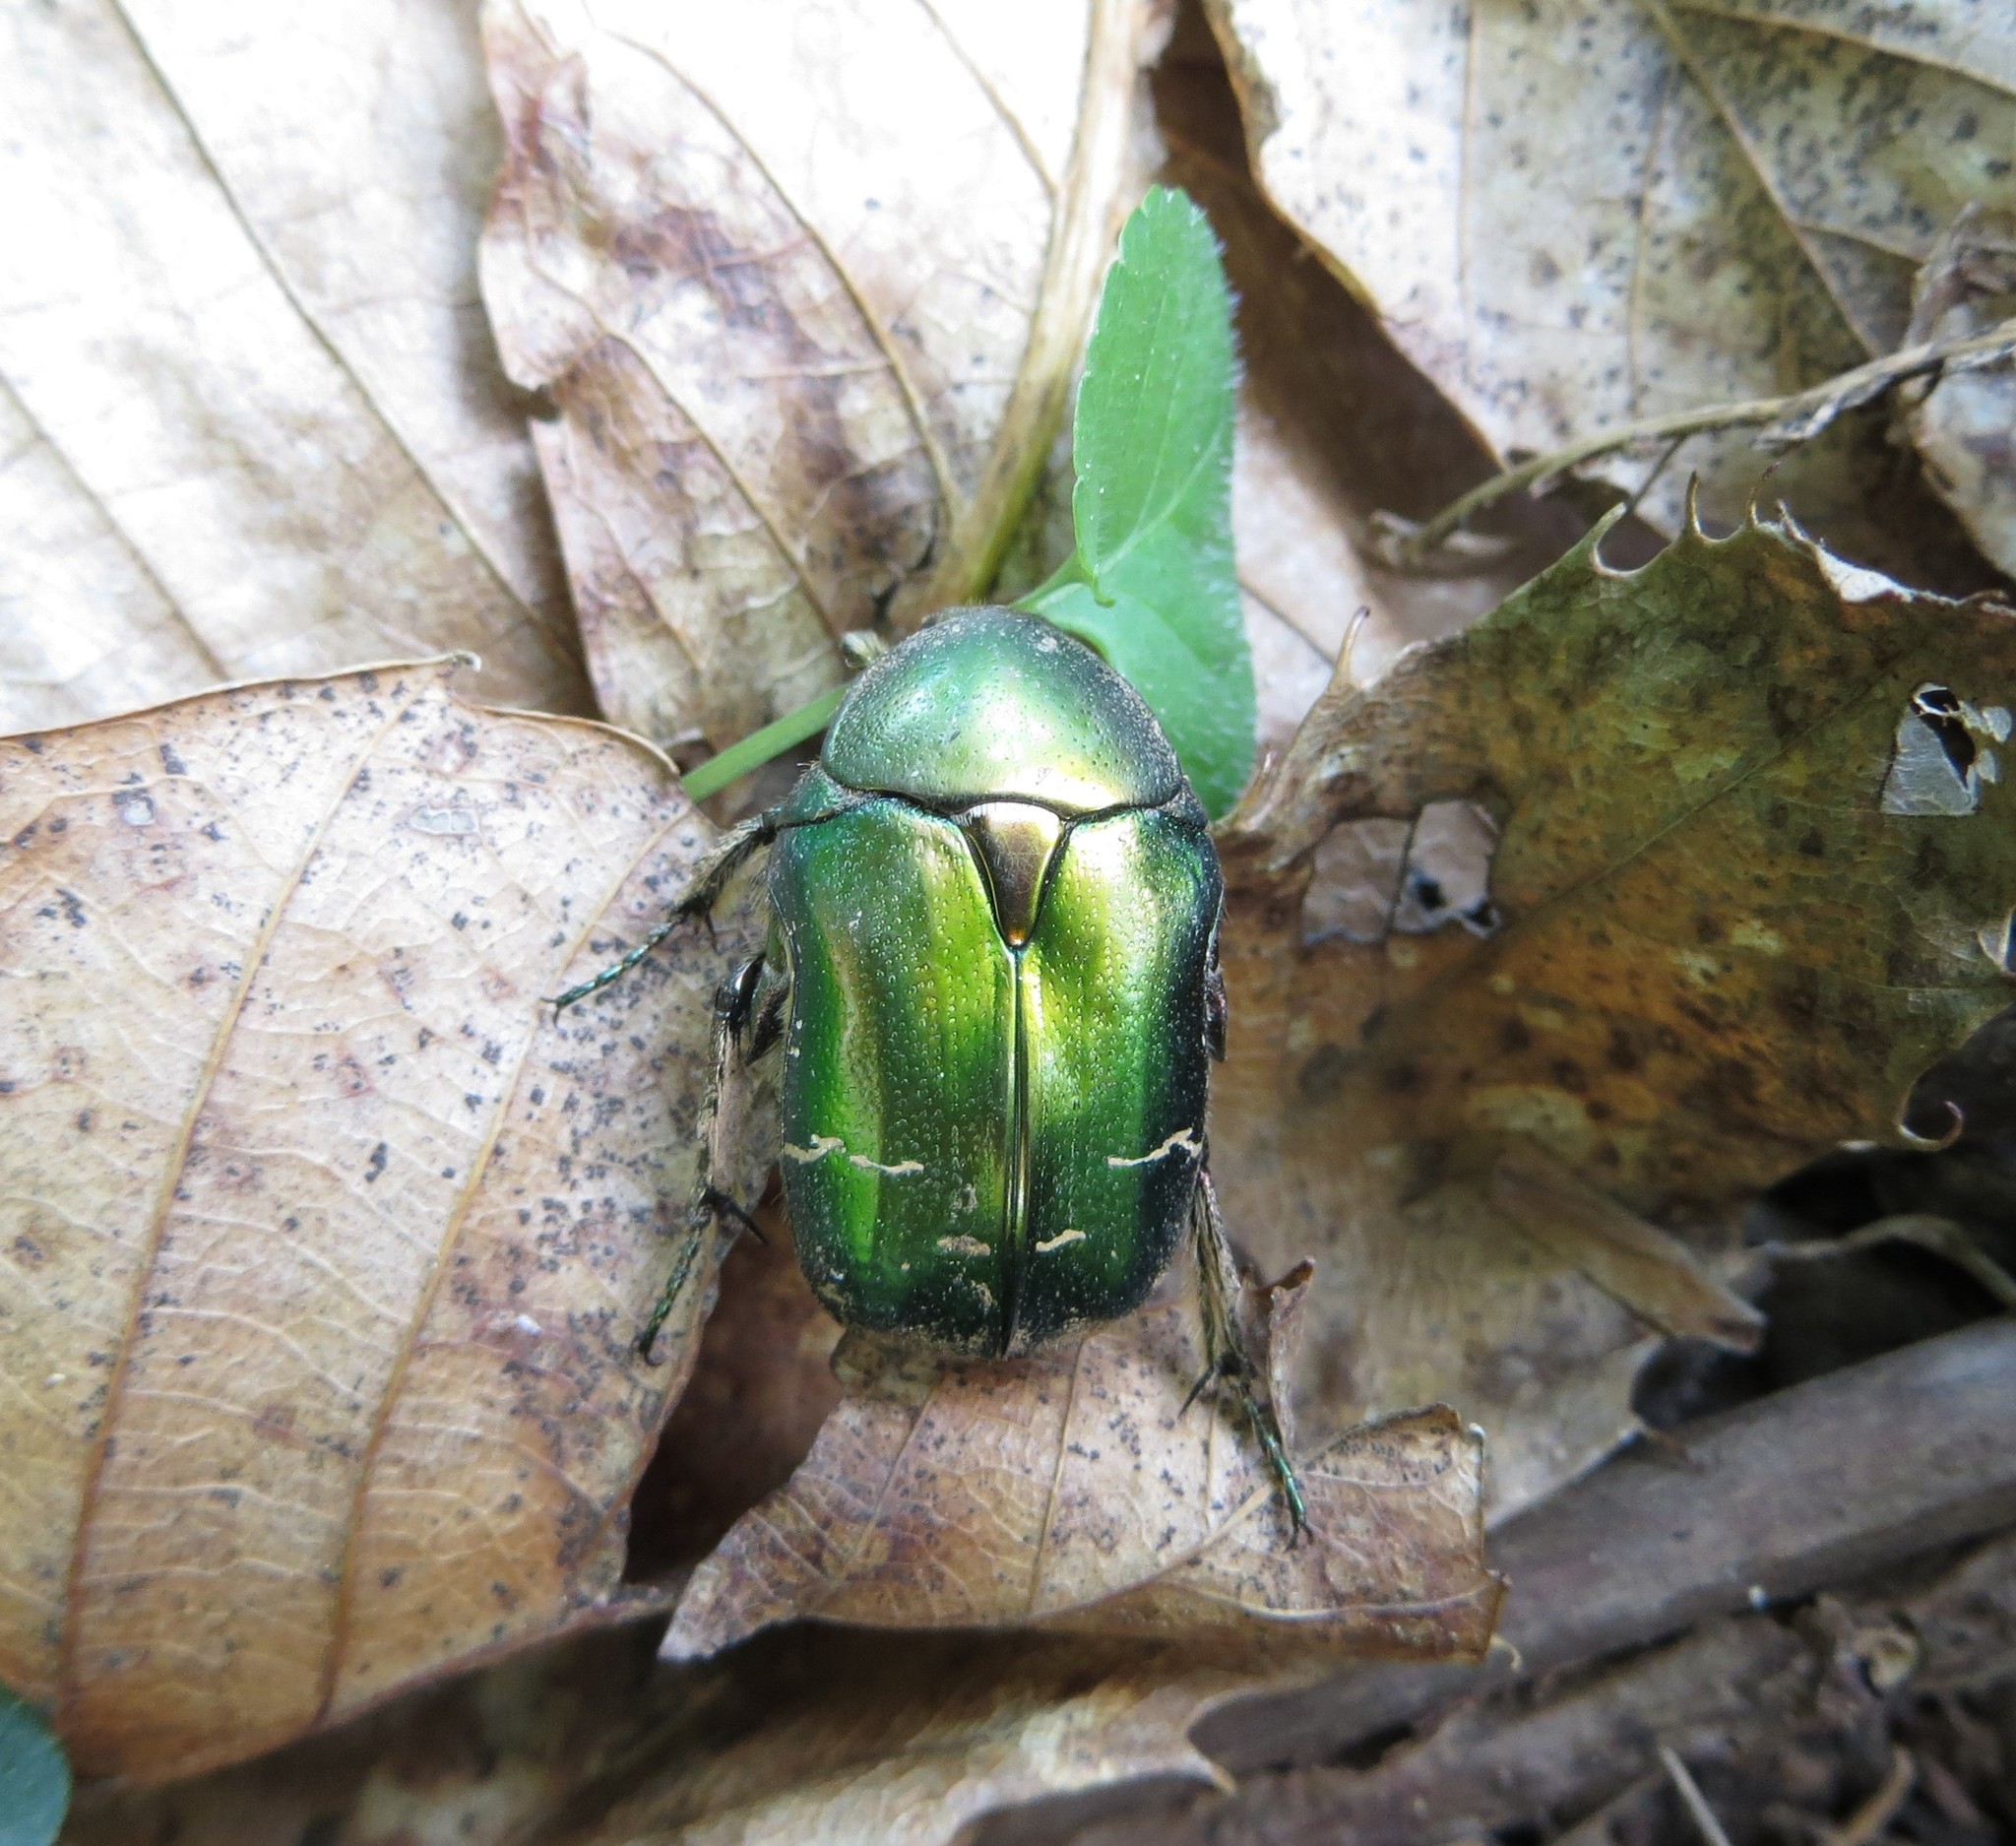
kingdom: Animalia
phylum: Arthropoda
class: Insecta
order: Coleoptera
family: Scarabaeidae
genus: Cetonia
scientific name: Cetonia aurata
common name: Rose chafer
